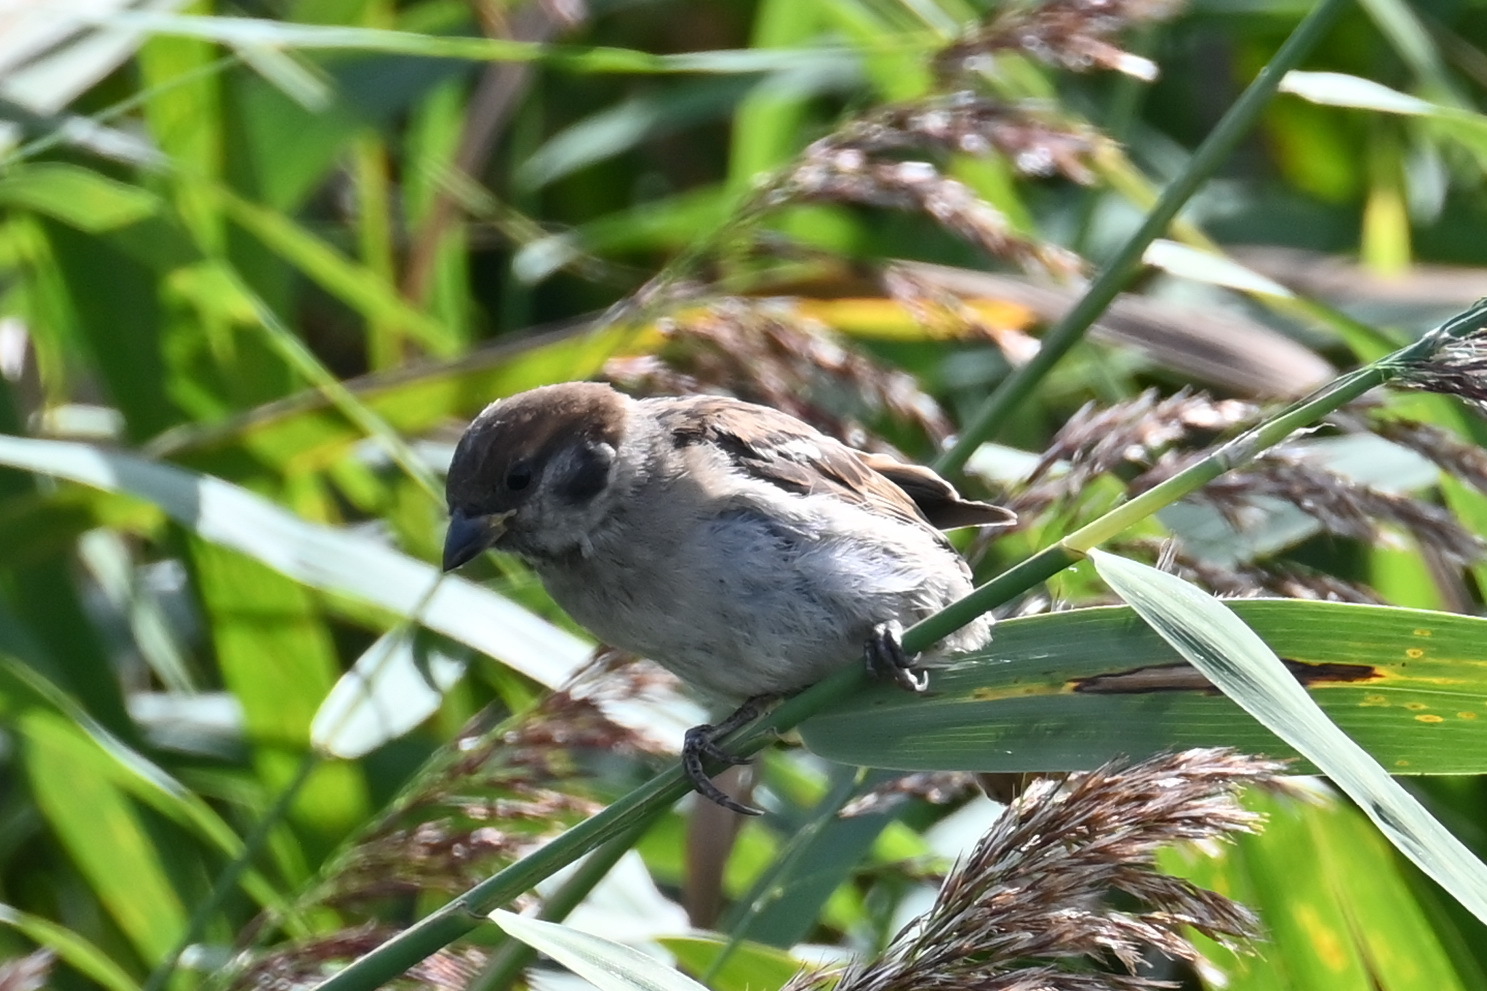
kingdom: Animalia
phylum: Chordata
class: Aves
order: Passeriformes
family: Passeridae
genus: Passer
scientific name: Passer montanus
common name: Eurasian tree sparrow
